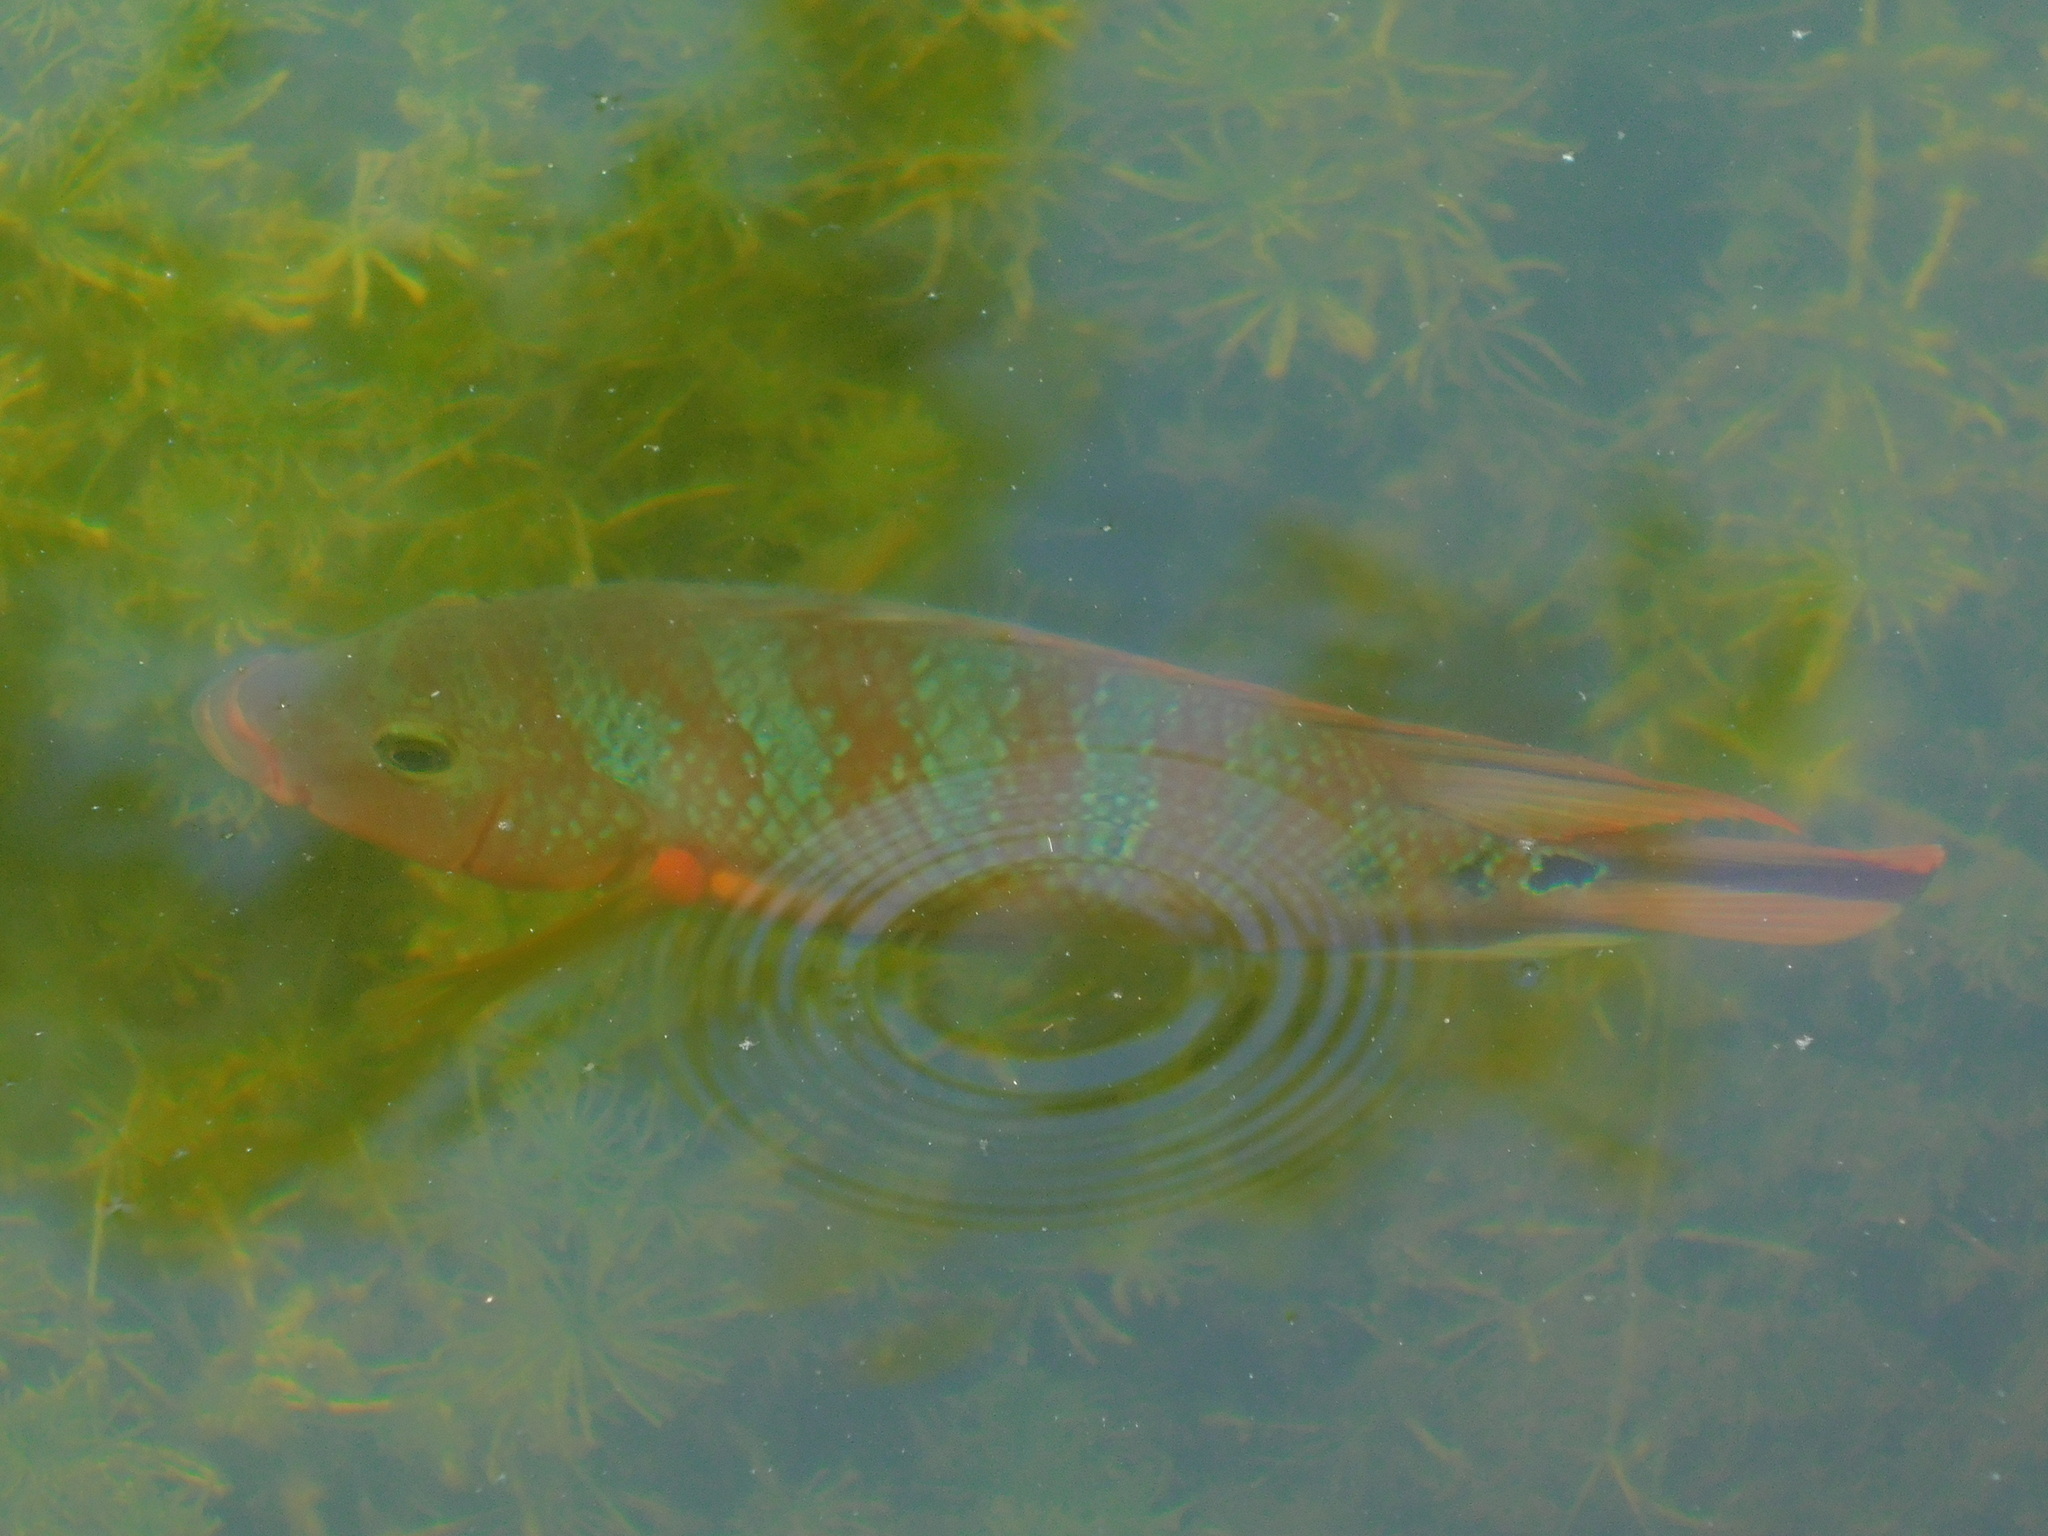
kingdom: Animalia
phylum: Chordata
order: Perciformes
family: Cichlidae
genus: Mayaheros
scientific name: Mayaheros urophthalmus
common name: Mayan cichlid
